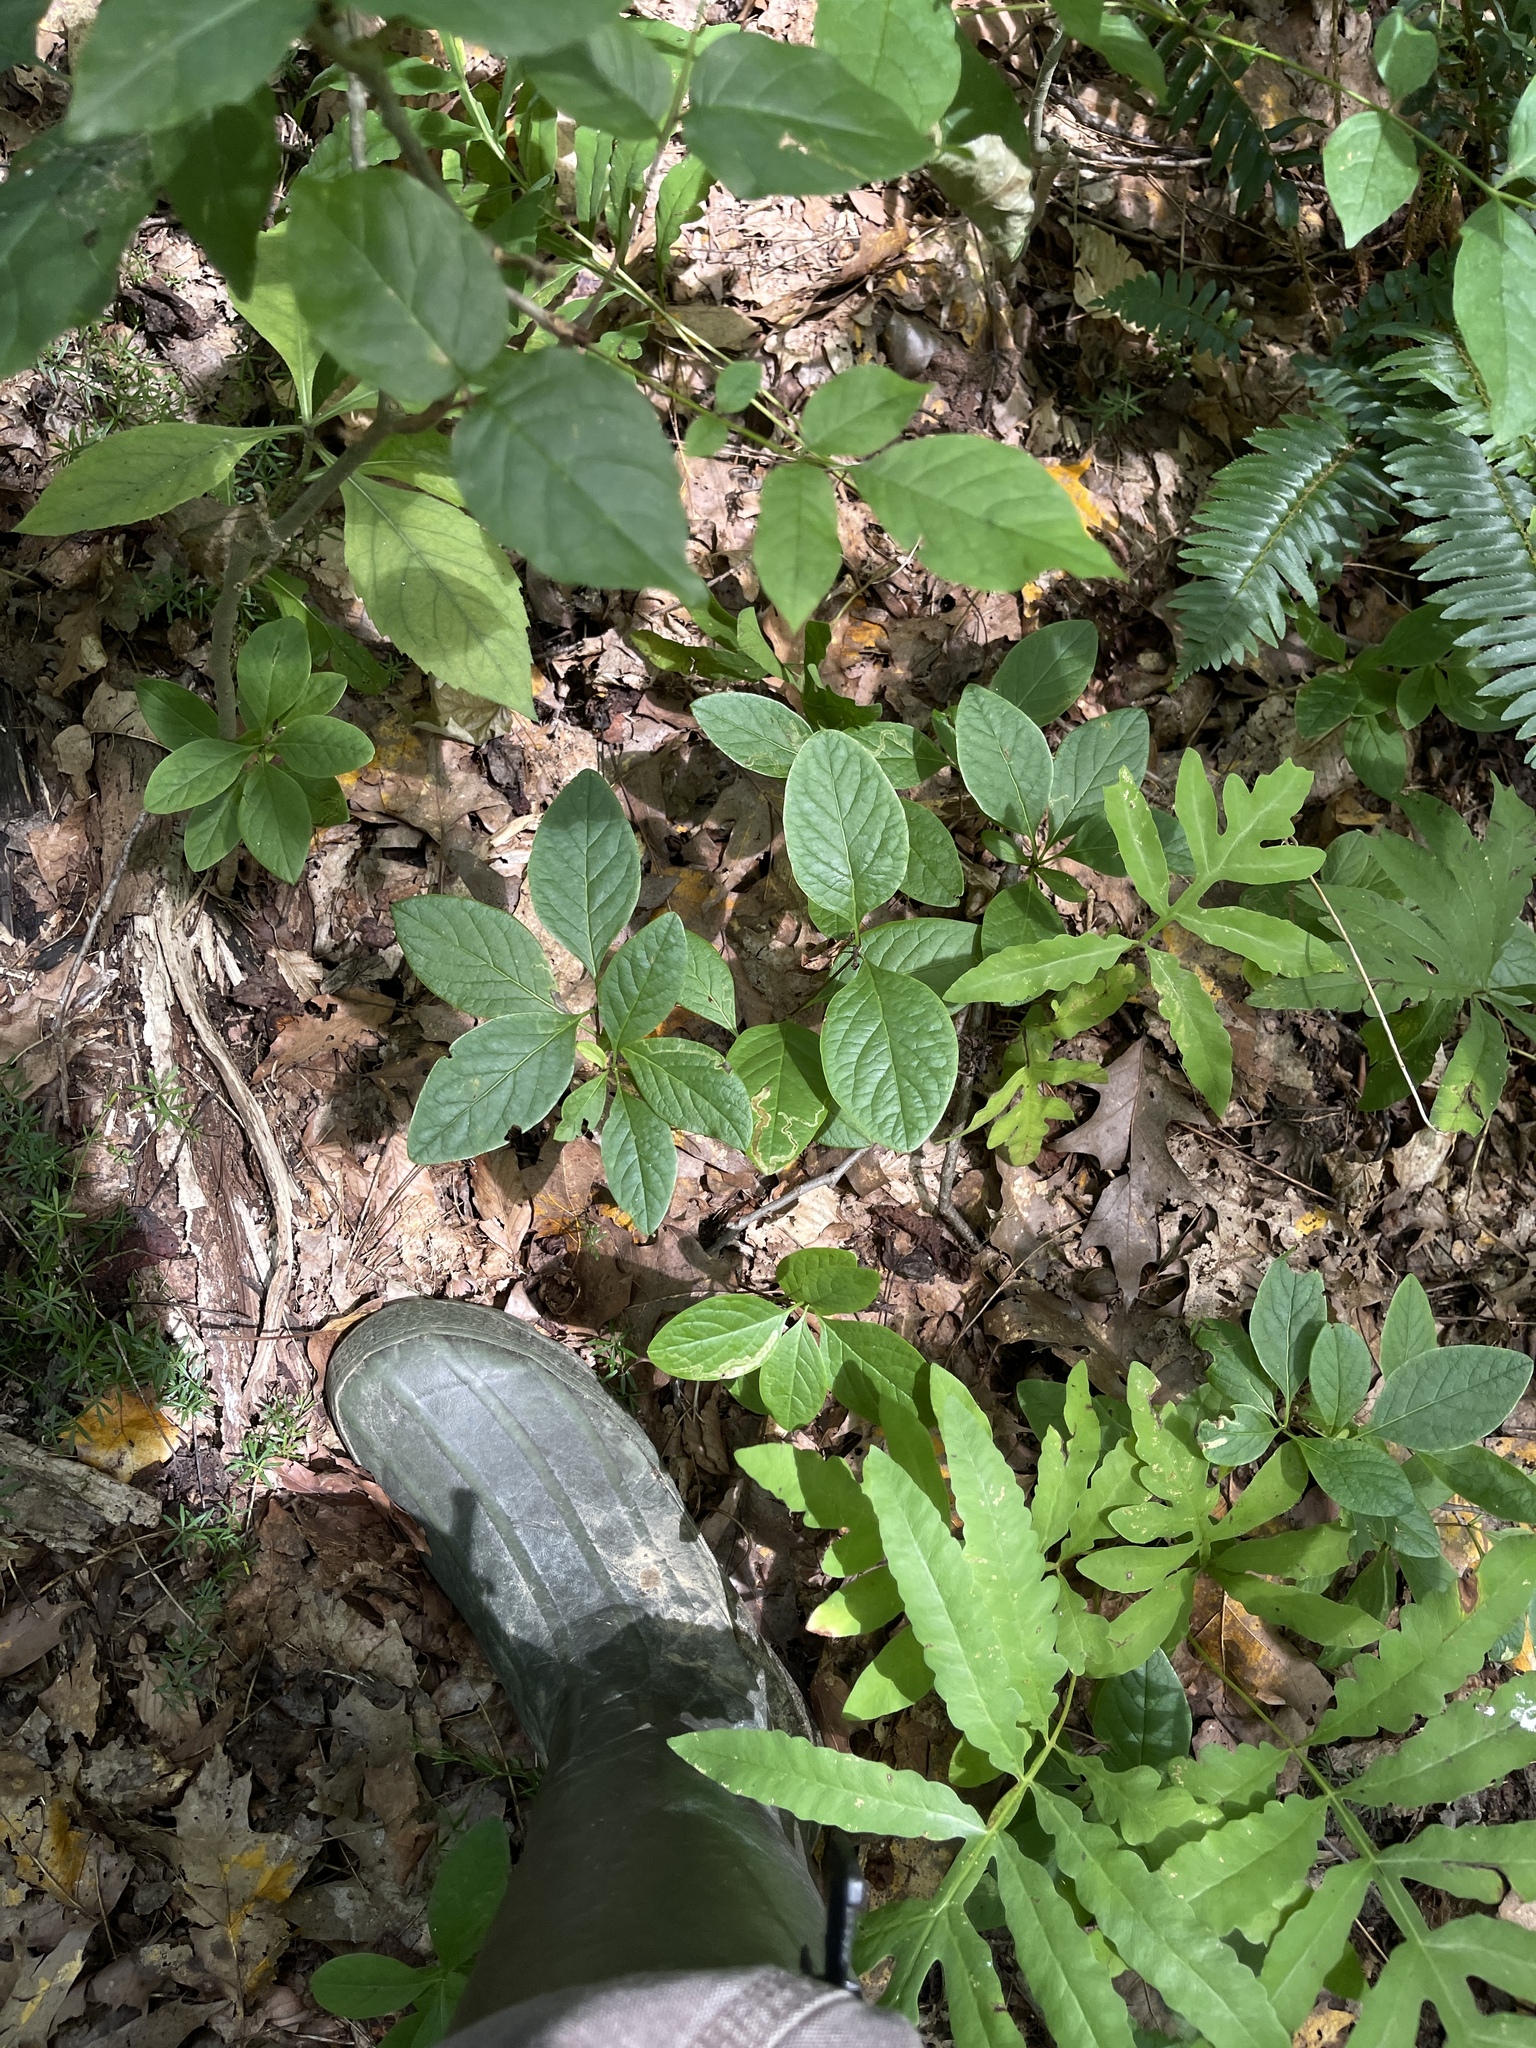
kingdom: Plantae
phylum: Tracheophyta
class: Magnoliopsida
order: Dipsacales
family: Caprifoliaceae
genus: Lonicera
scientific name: Lonicera dioica
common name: Limber honeysuckle
